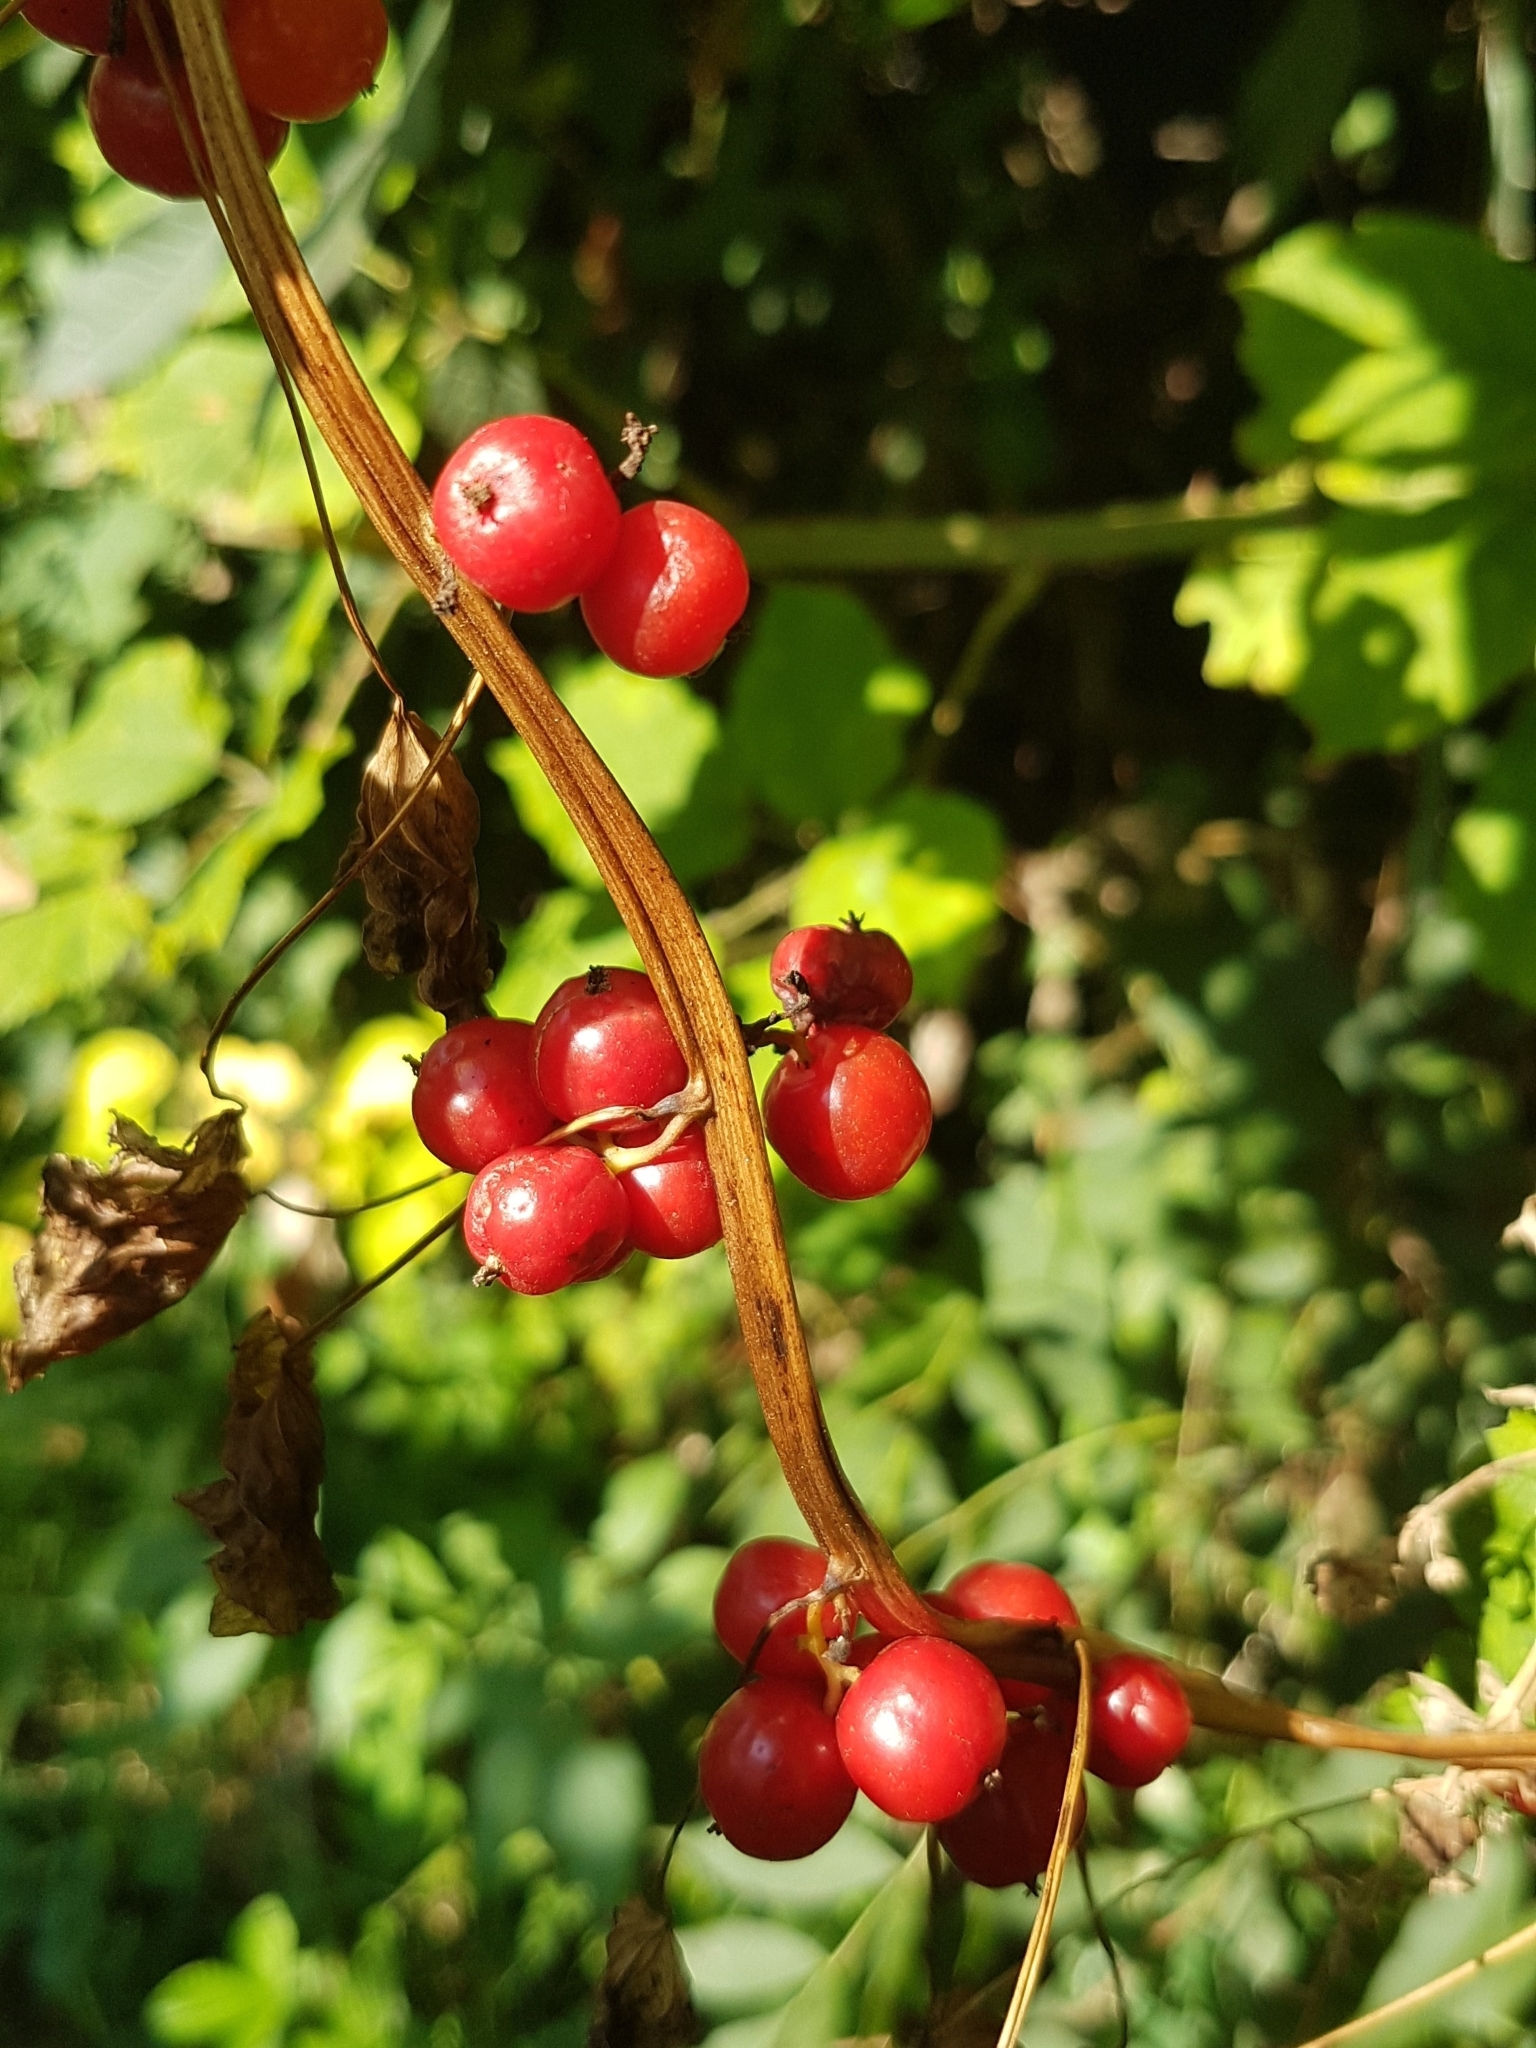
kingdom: Plantae
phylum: Tracheophyta
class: Liliopsida
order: Dioscoreales
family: Dioscoreaceae
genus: Dioscorea
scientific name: Dioscorea communis
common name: Black-bindweed
